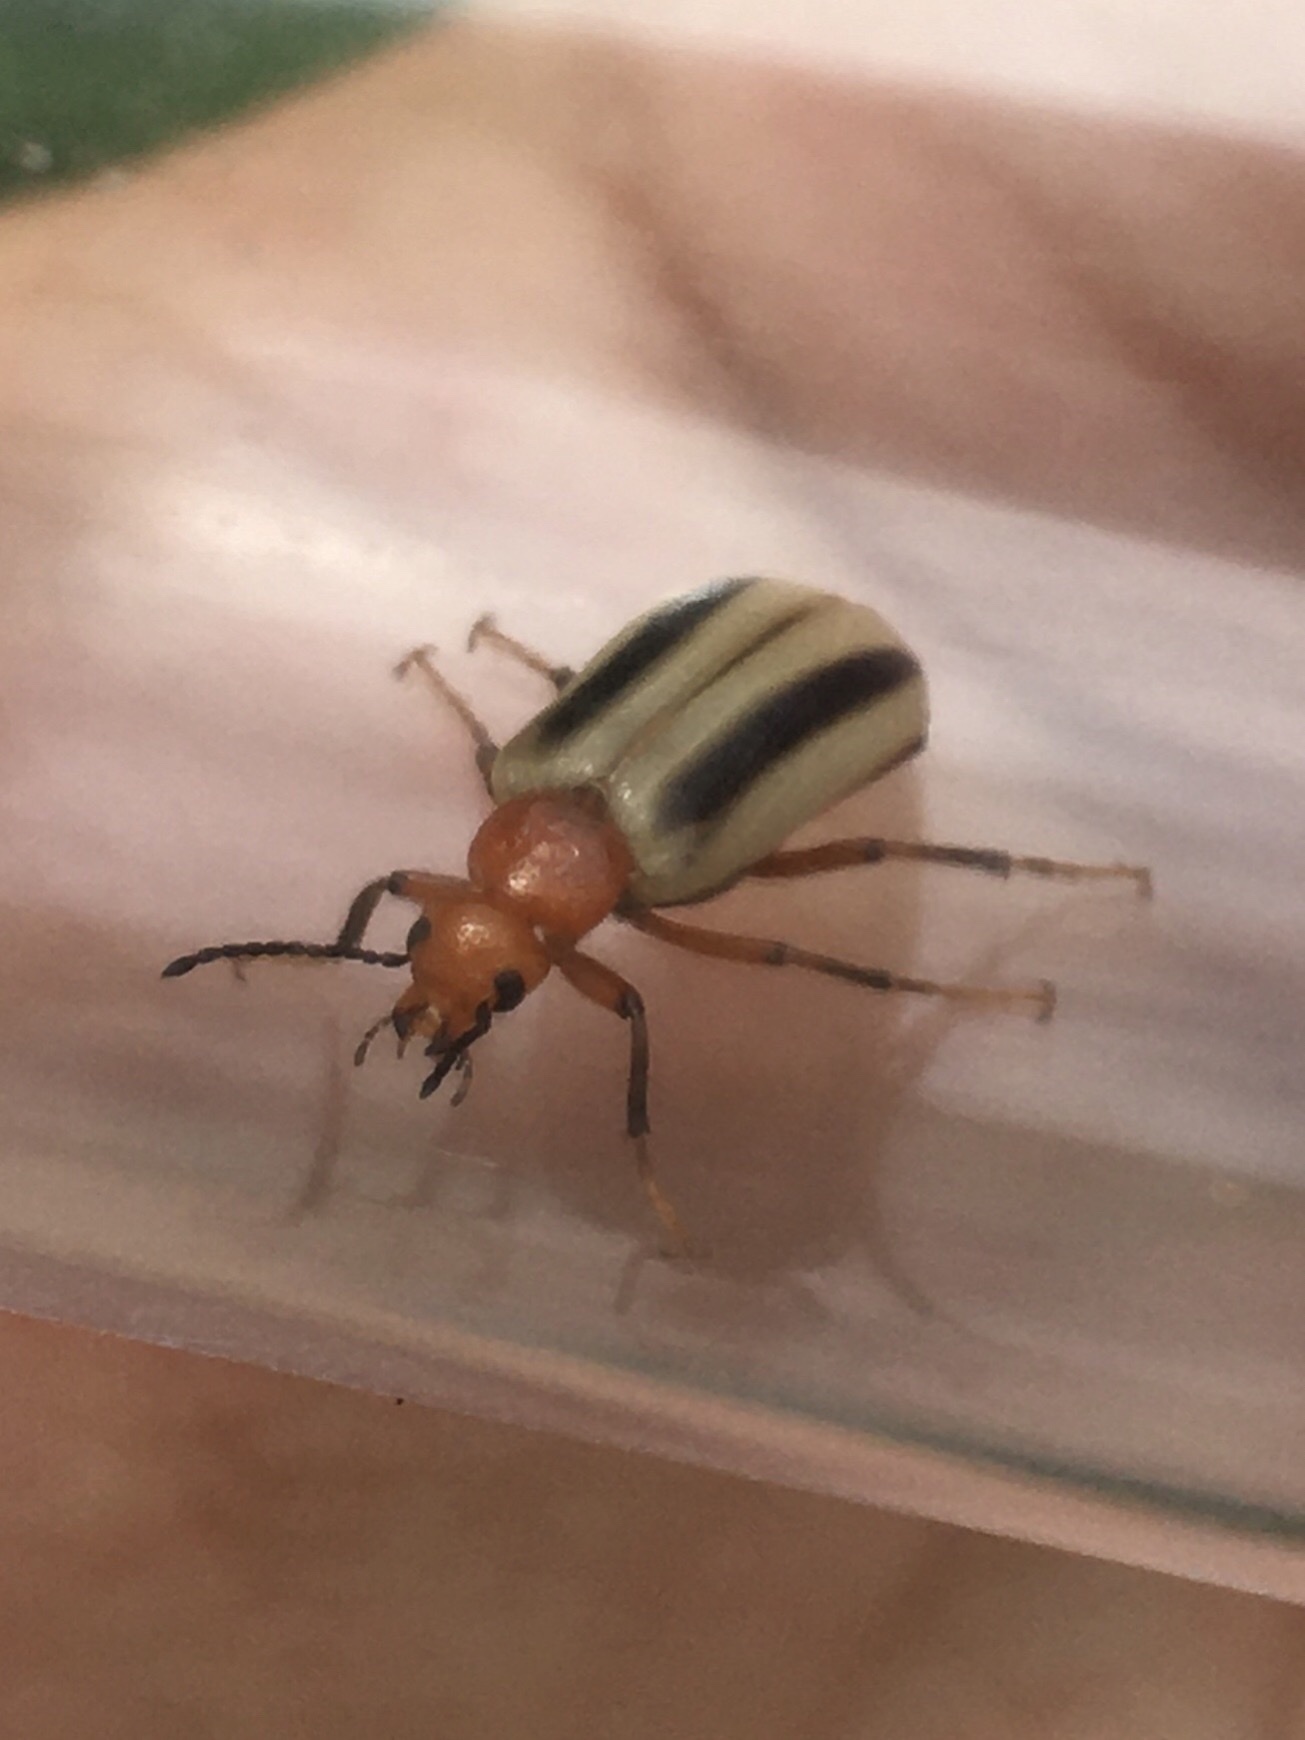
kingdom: Animalia
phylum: Arthropoda
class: Insecta
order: Coleoptera
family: Meloidae
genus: Zonitis
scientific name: Zonitis bilineata
